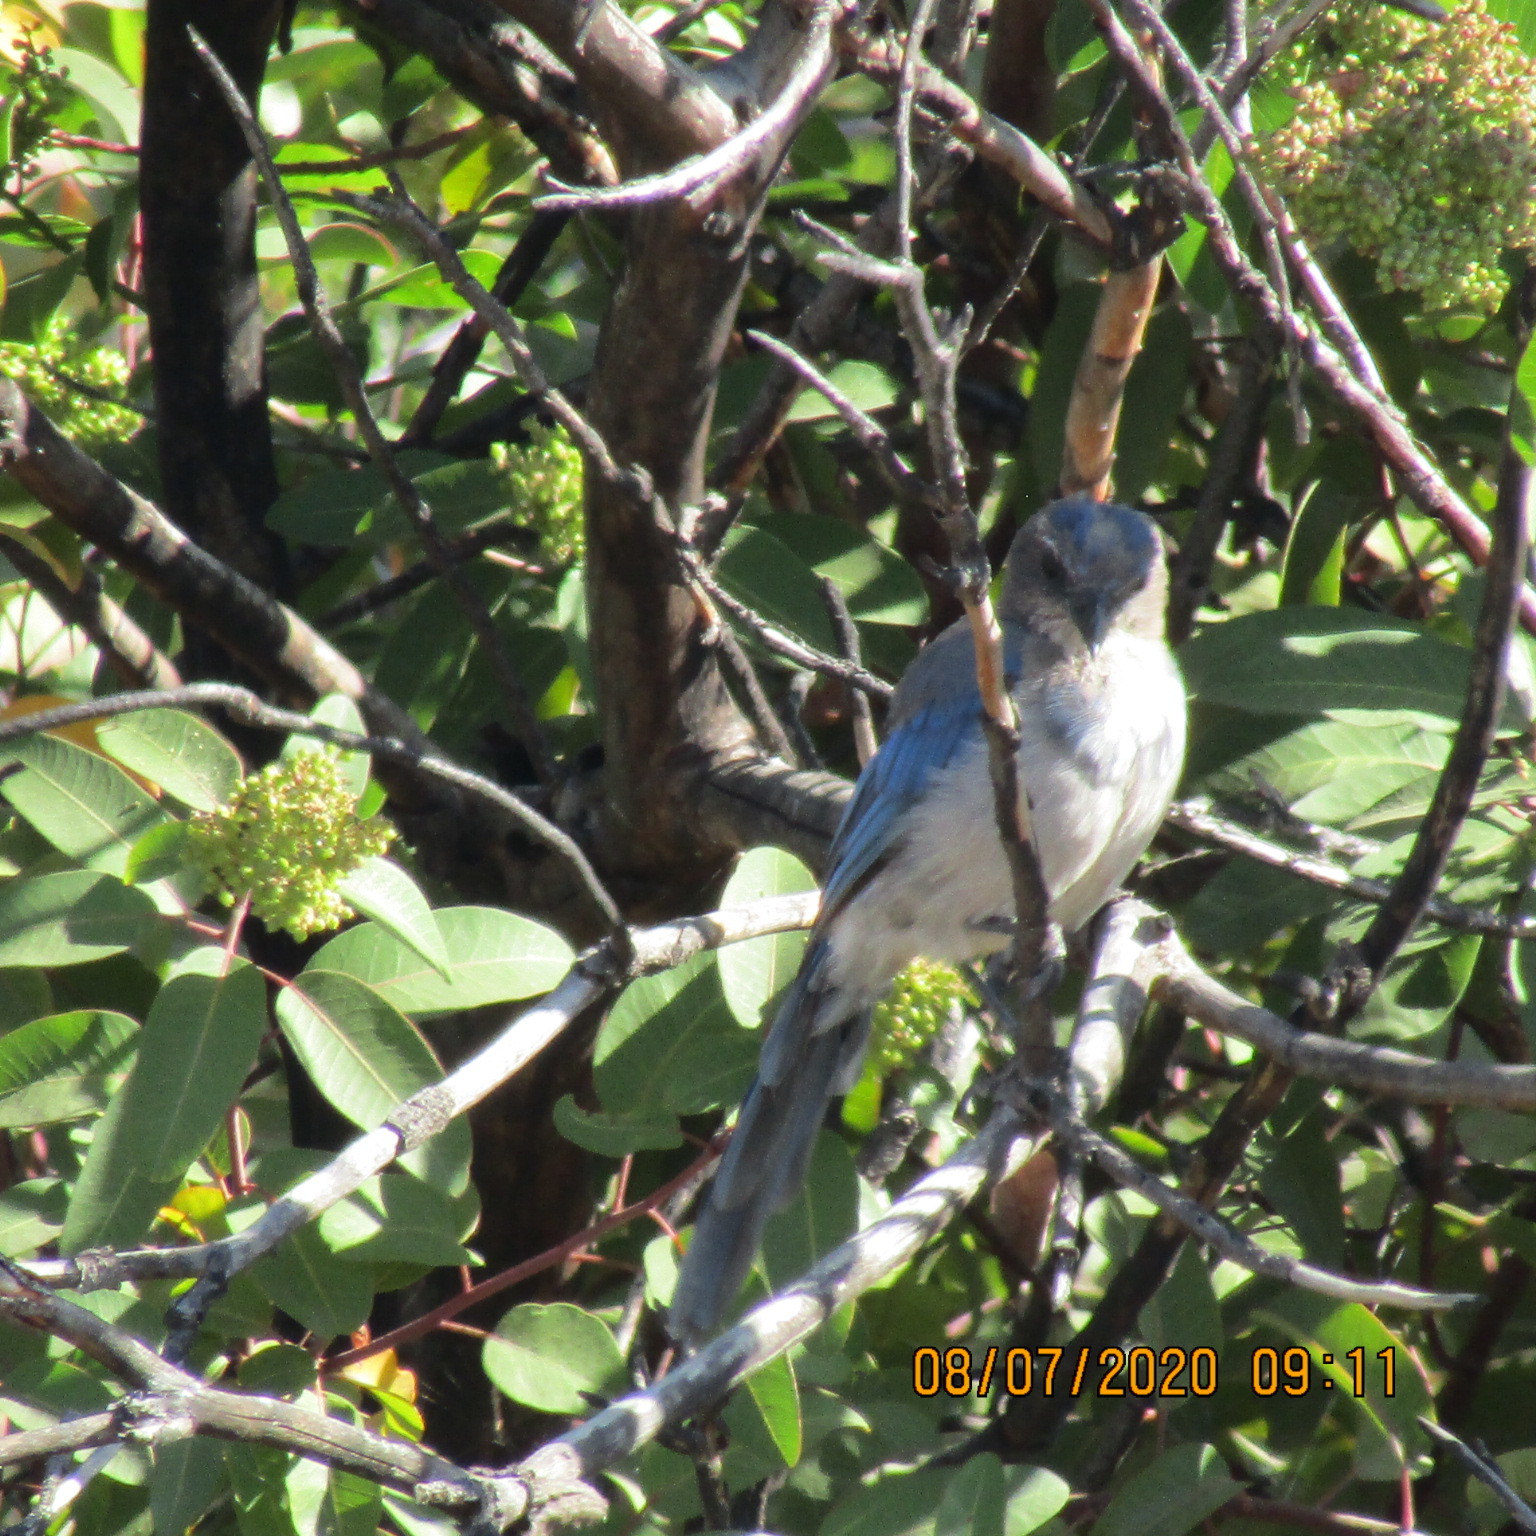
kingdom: Animalia
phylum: Chordata
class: Aves
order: Passeriformes
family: Corvidae
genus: Aphelocoma
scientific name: Aphelocoma californica
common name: California scrub-jay
